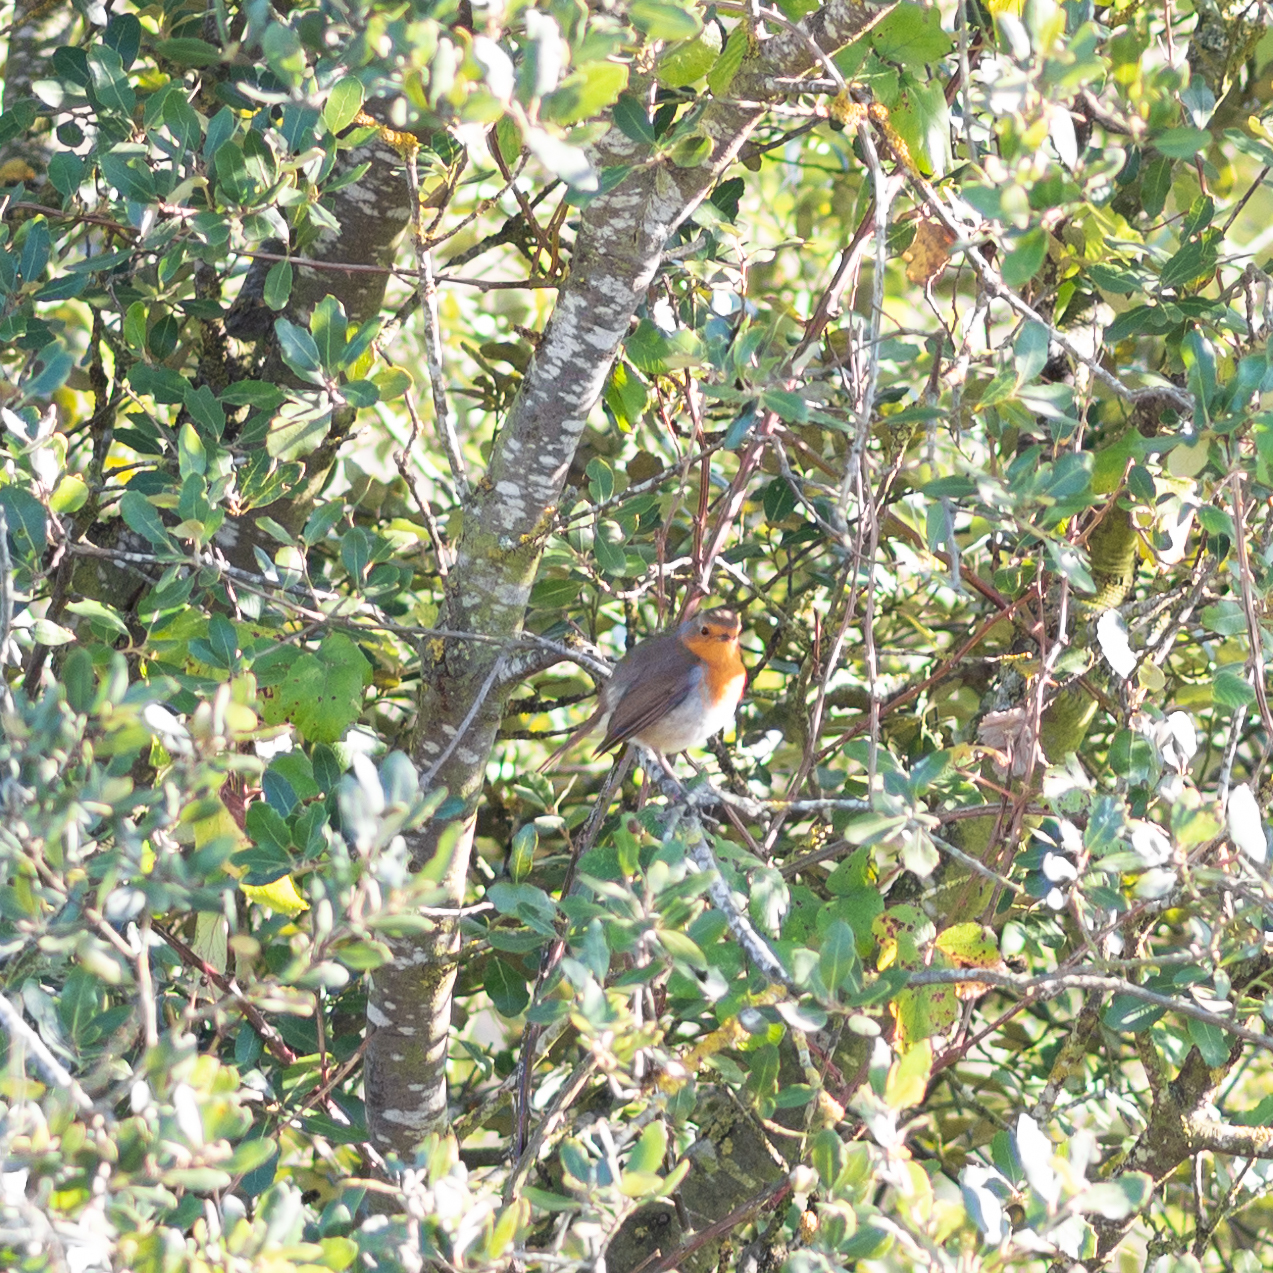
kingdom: Animalia
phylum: Chordata
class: Aves
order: Passeriformes
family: Muscicapidae
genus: Erithacus
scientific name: Erithacus rubecula
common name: European robin
